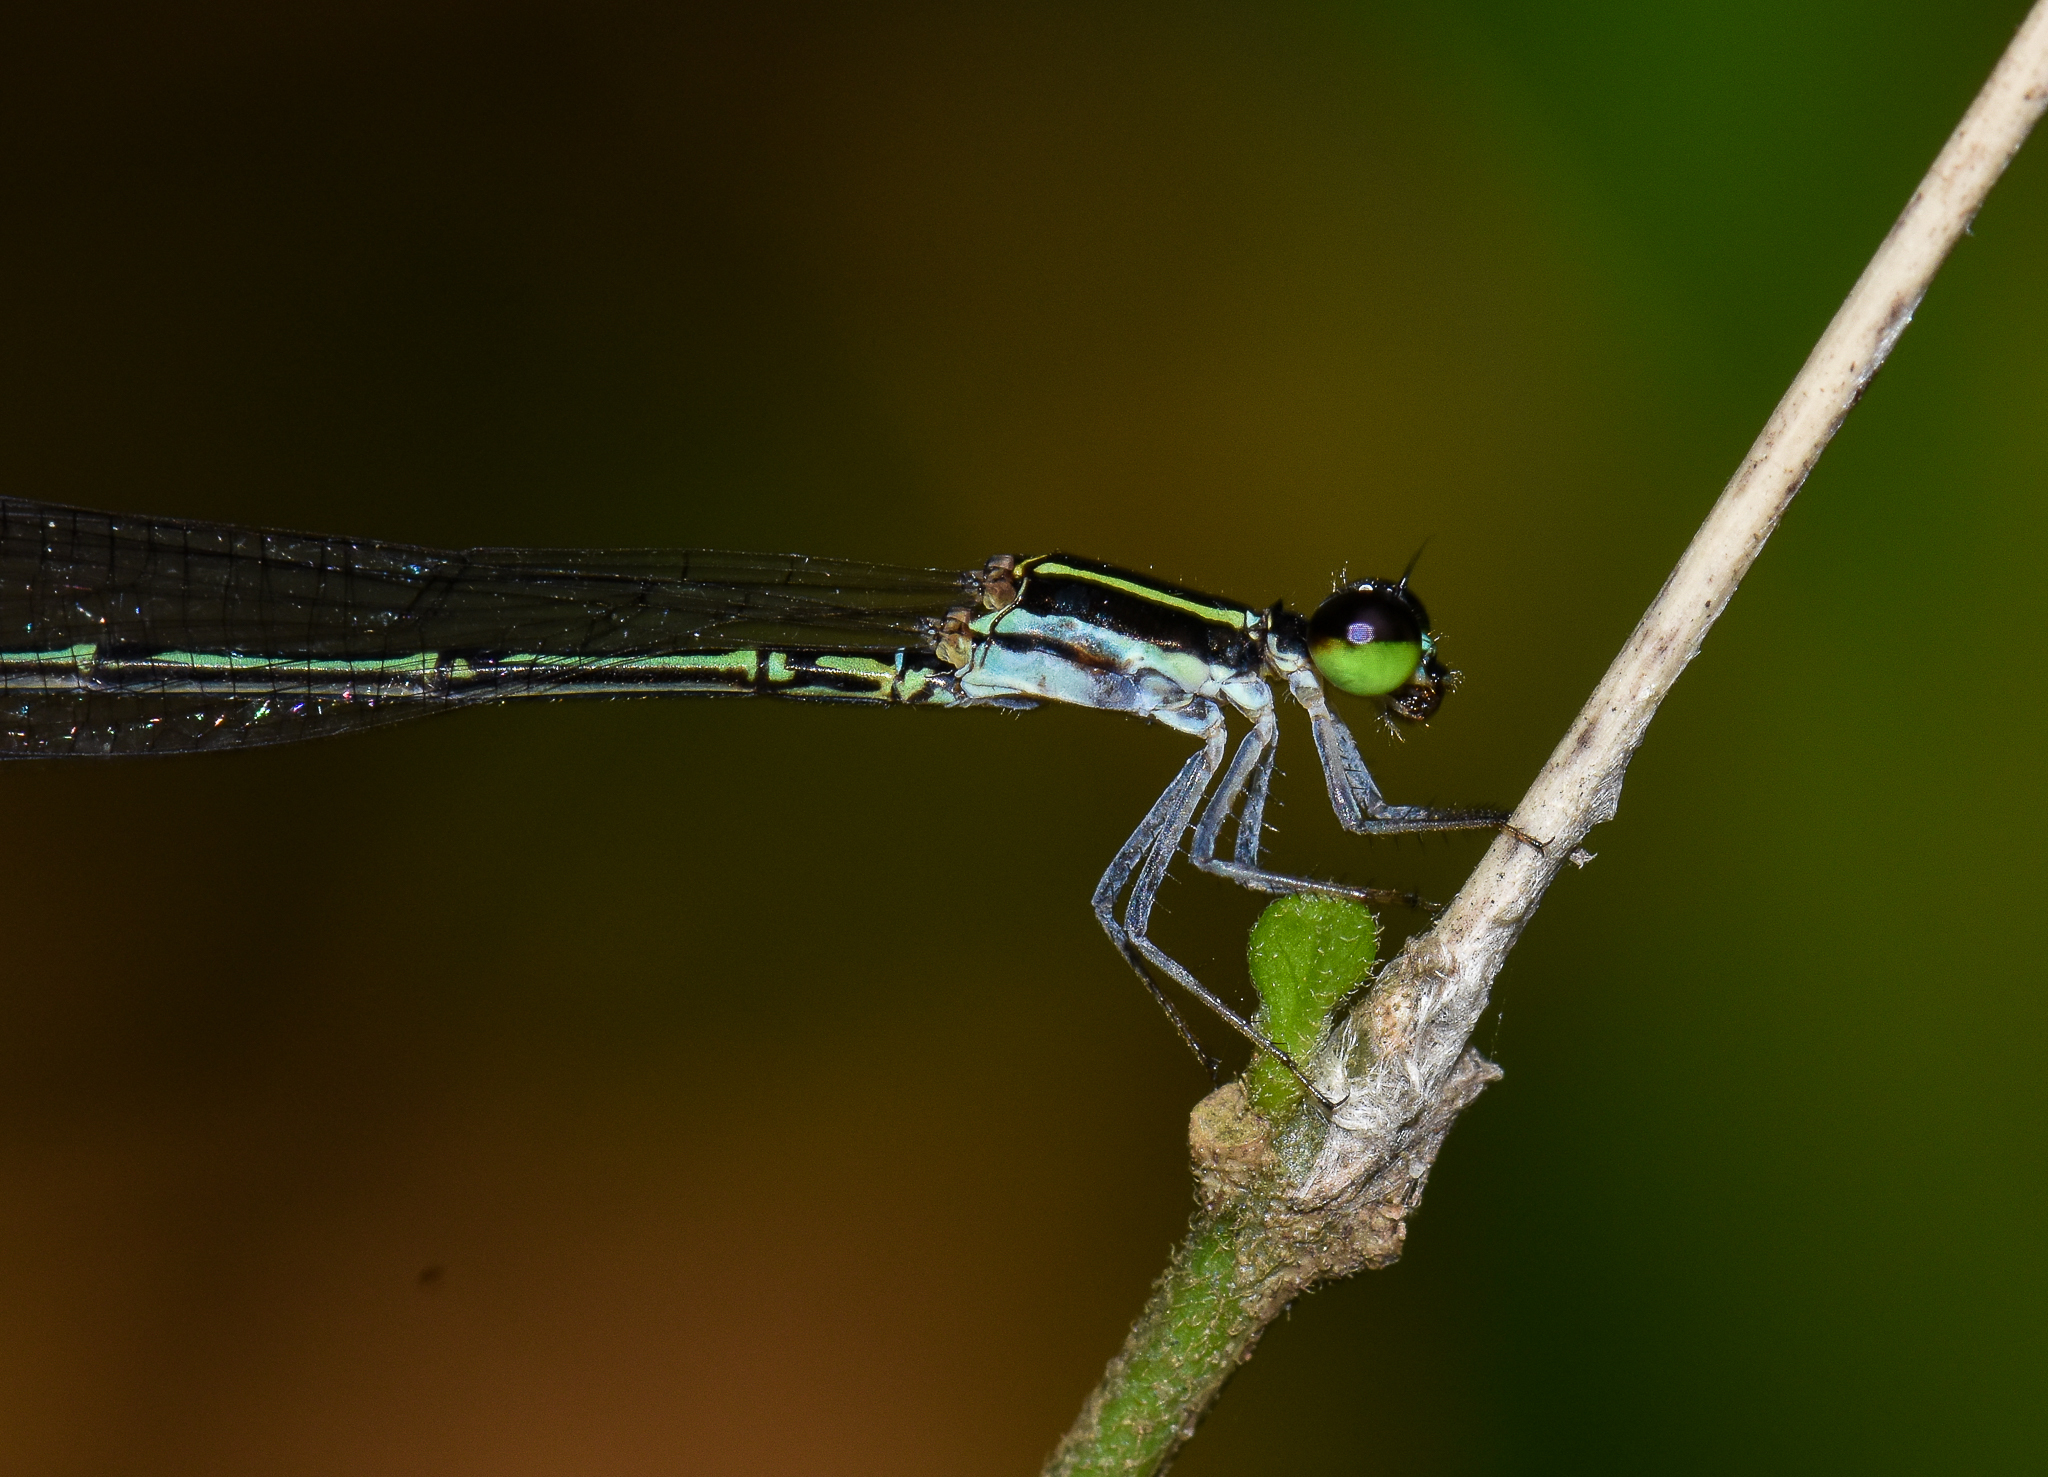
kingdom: Animalia
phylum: Arthropoda
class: Insecta
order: Odonata
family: Coenagrionidae
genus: Mortonagrion
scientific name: Mortonagrion aborense
